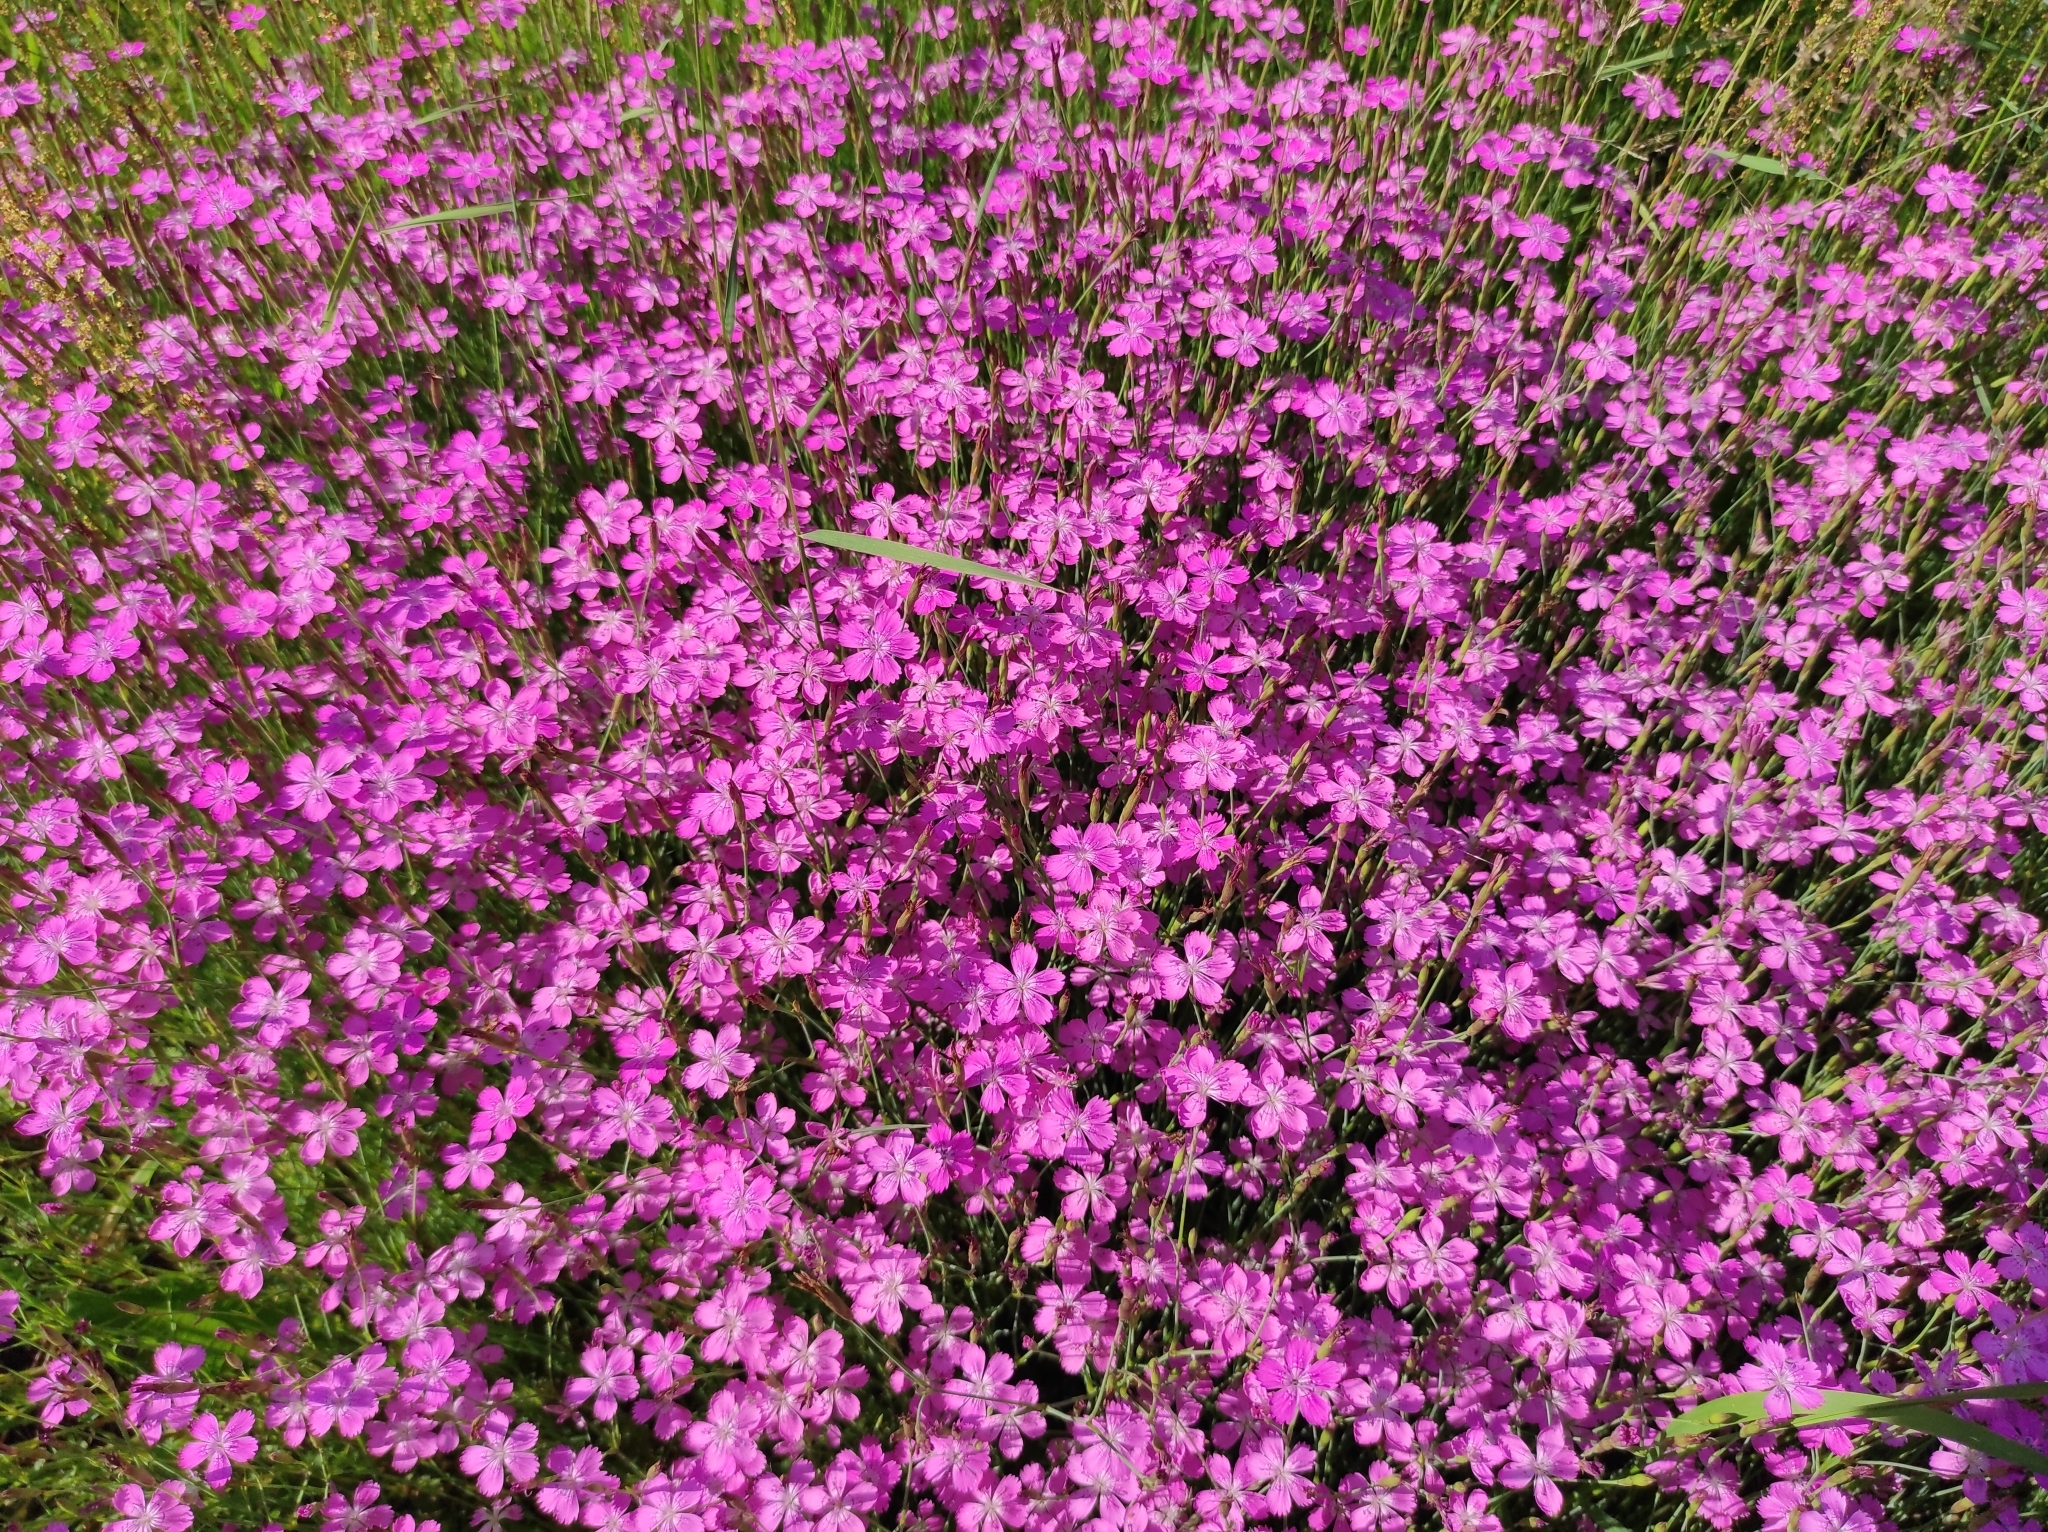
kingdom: Plantae
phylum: Tracheophyta
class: Magnoliopsida
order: Caryophyllales
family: Caryophyllaceae
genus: Dianthus
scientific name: Dianthus deltoides
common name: Maiden pink
